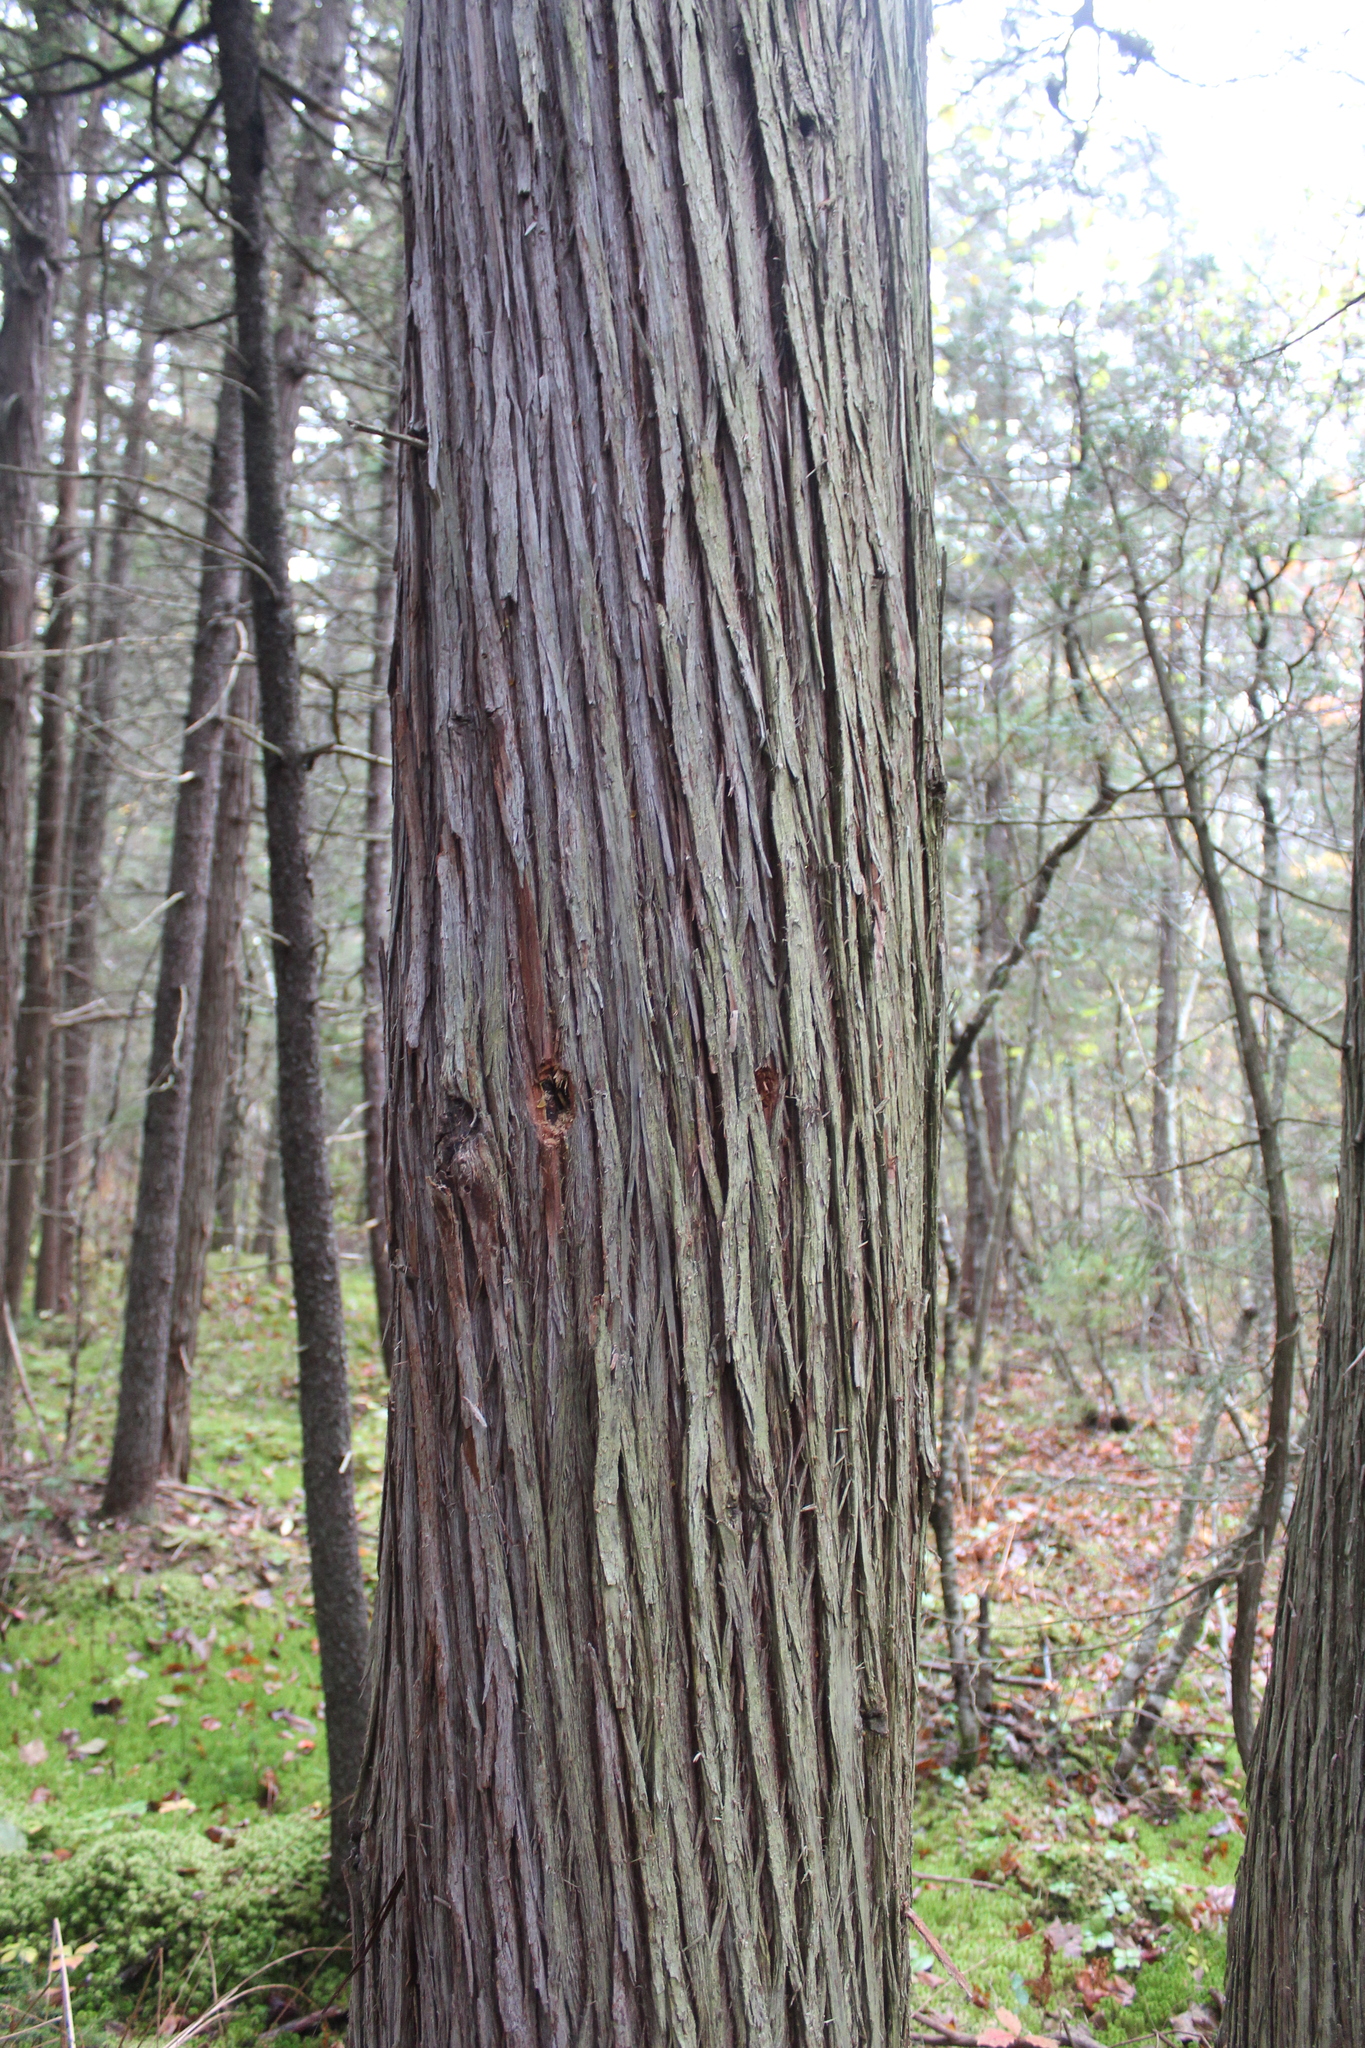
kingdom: Plantae
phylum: Tracheophyta
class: Pinopsida
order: Pinales
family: Cupressaceae
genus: Chamaecyparis
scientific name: Chamaecyparis thyoides
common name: Atlantic white cedar
